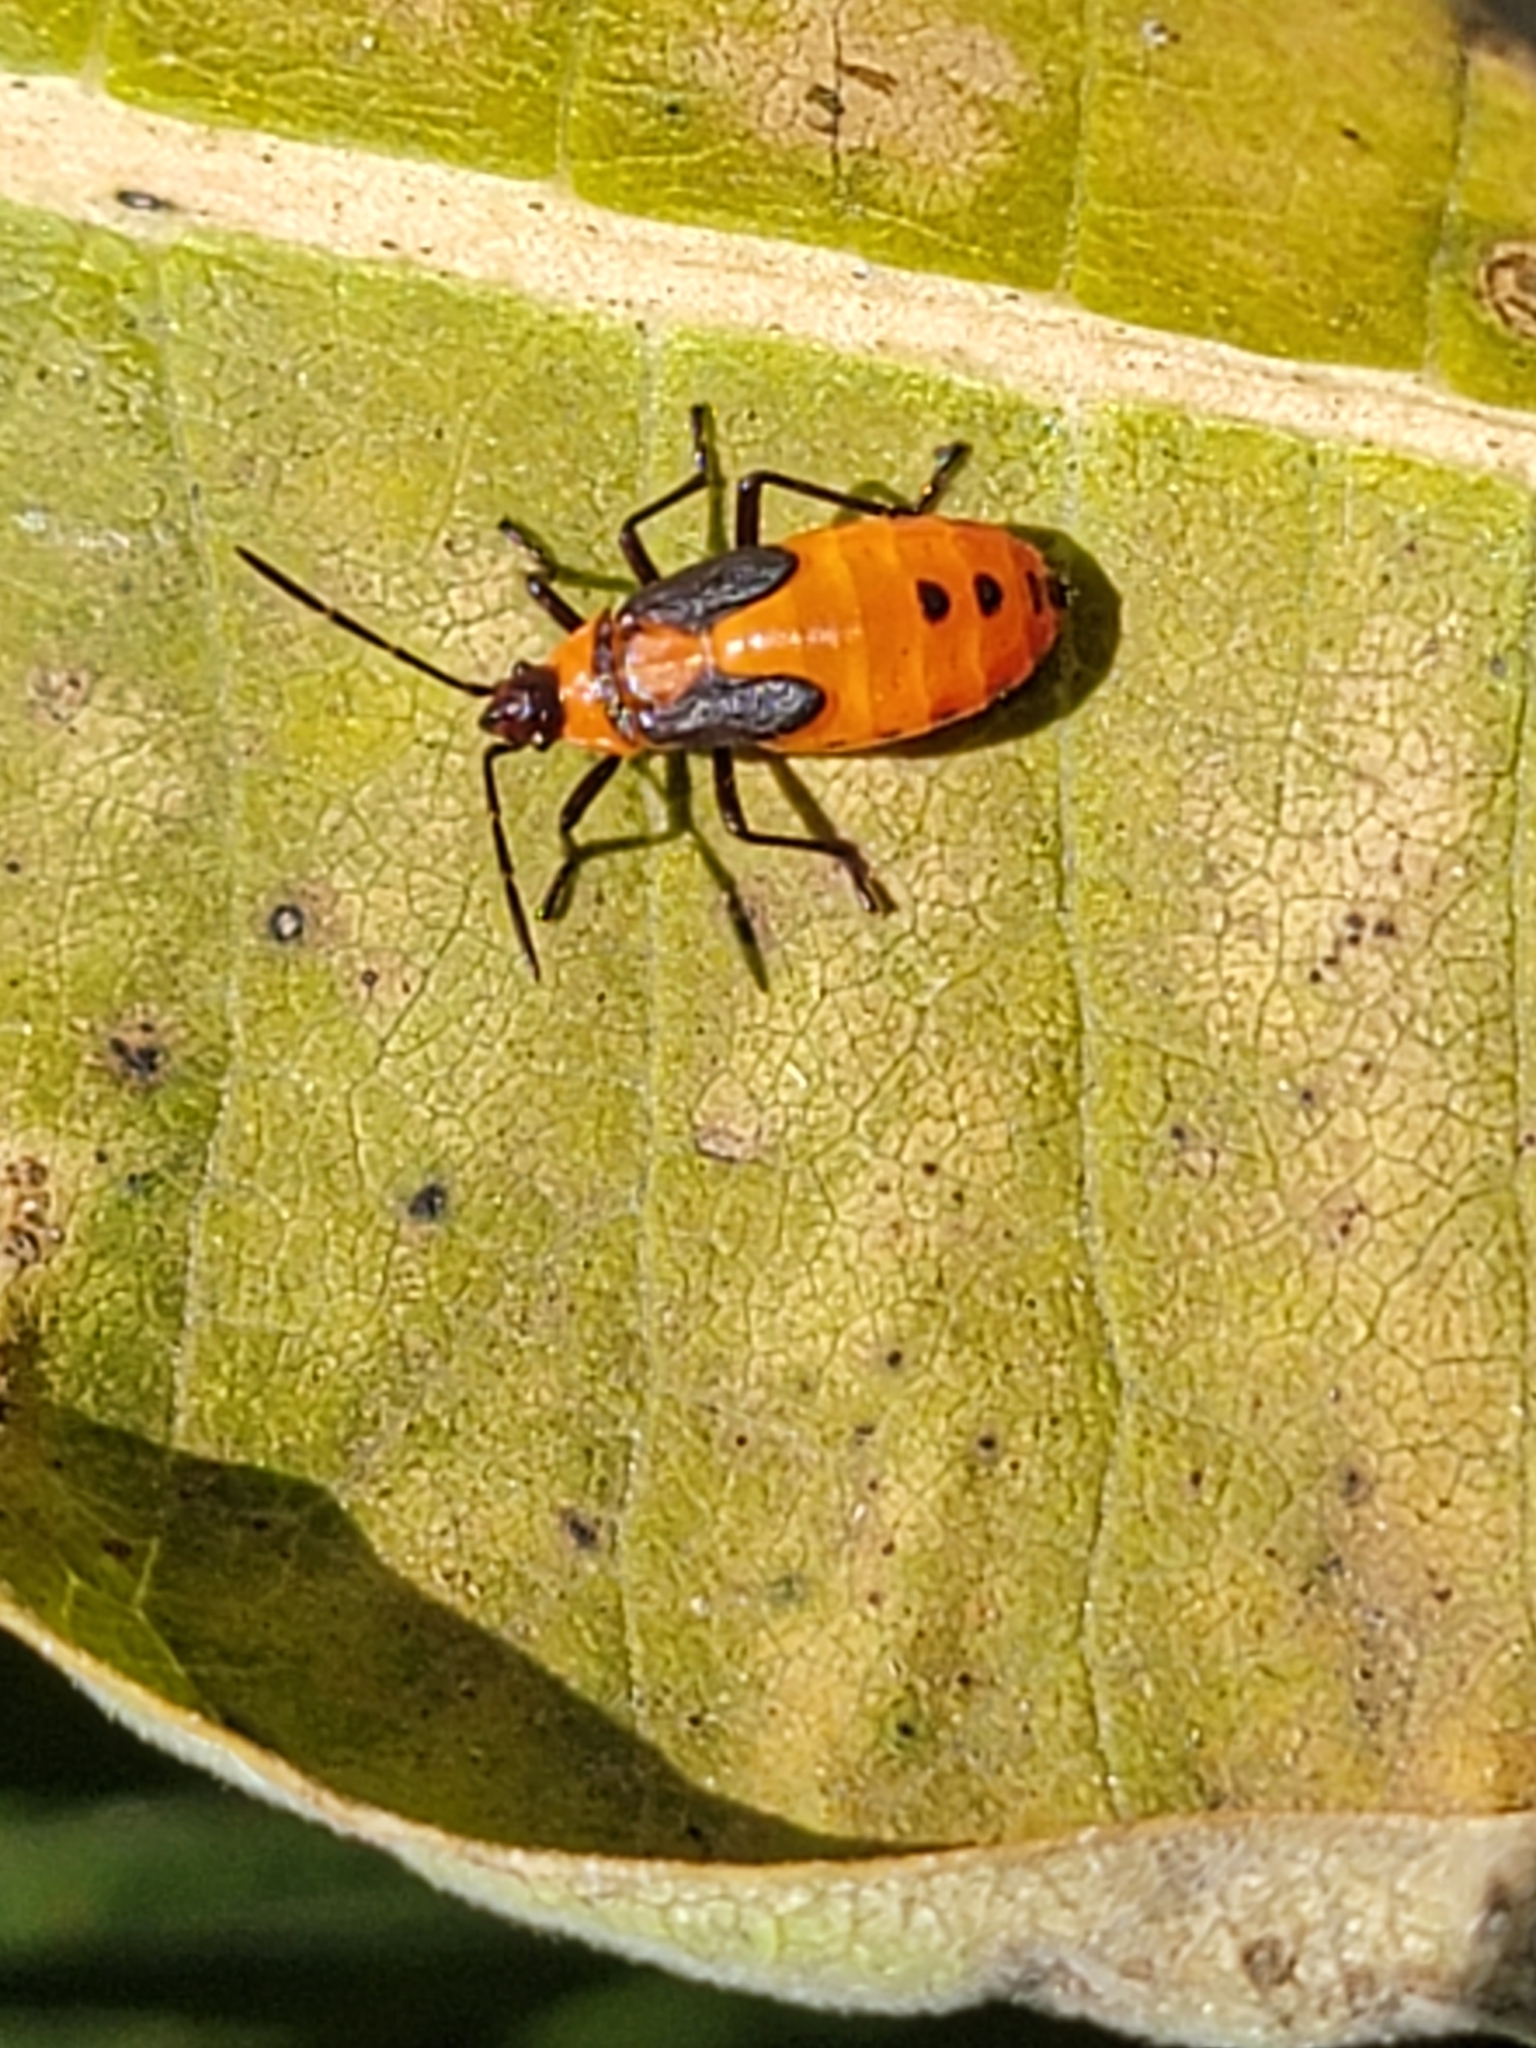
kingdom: Animalia
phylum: Arthropoda
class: Insecta
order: Hemiptera
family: Lygaeidae
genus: Oncopeltus
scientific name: Oncopeltus fasciatus
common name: Large milkweed bug
